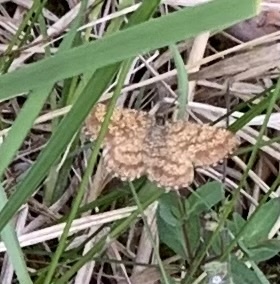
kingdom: Animalia
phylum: Arthropoda
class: Insecta
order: Lepidoptera
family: Geometridae
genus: Ematurga
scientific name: Ematurga atomaria
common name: Common heath
